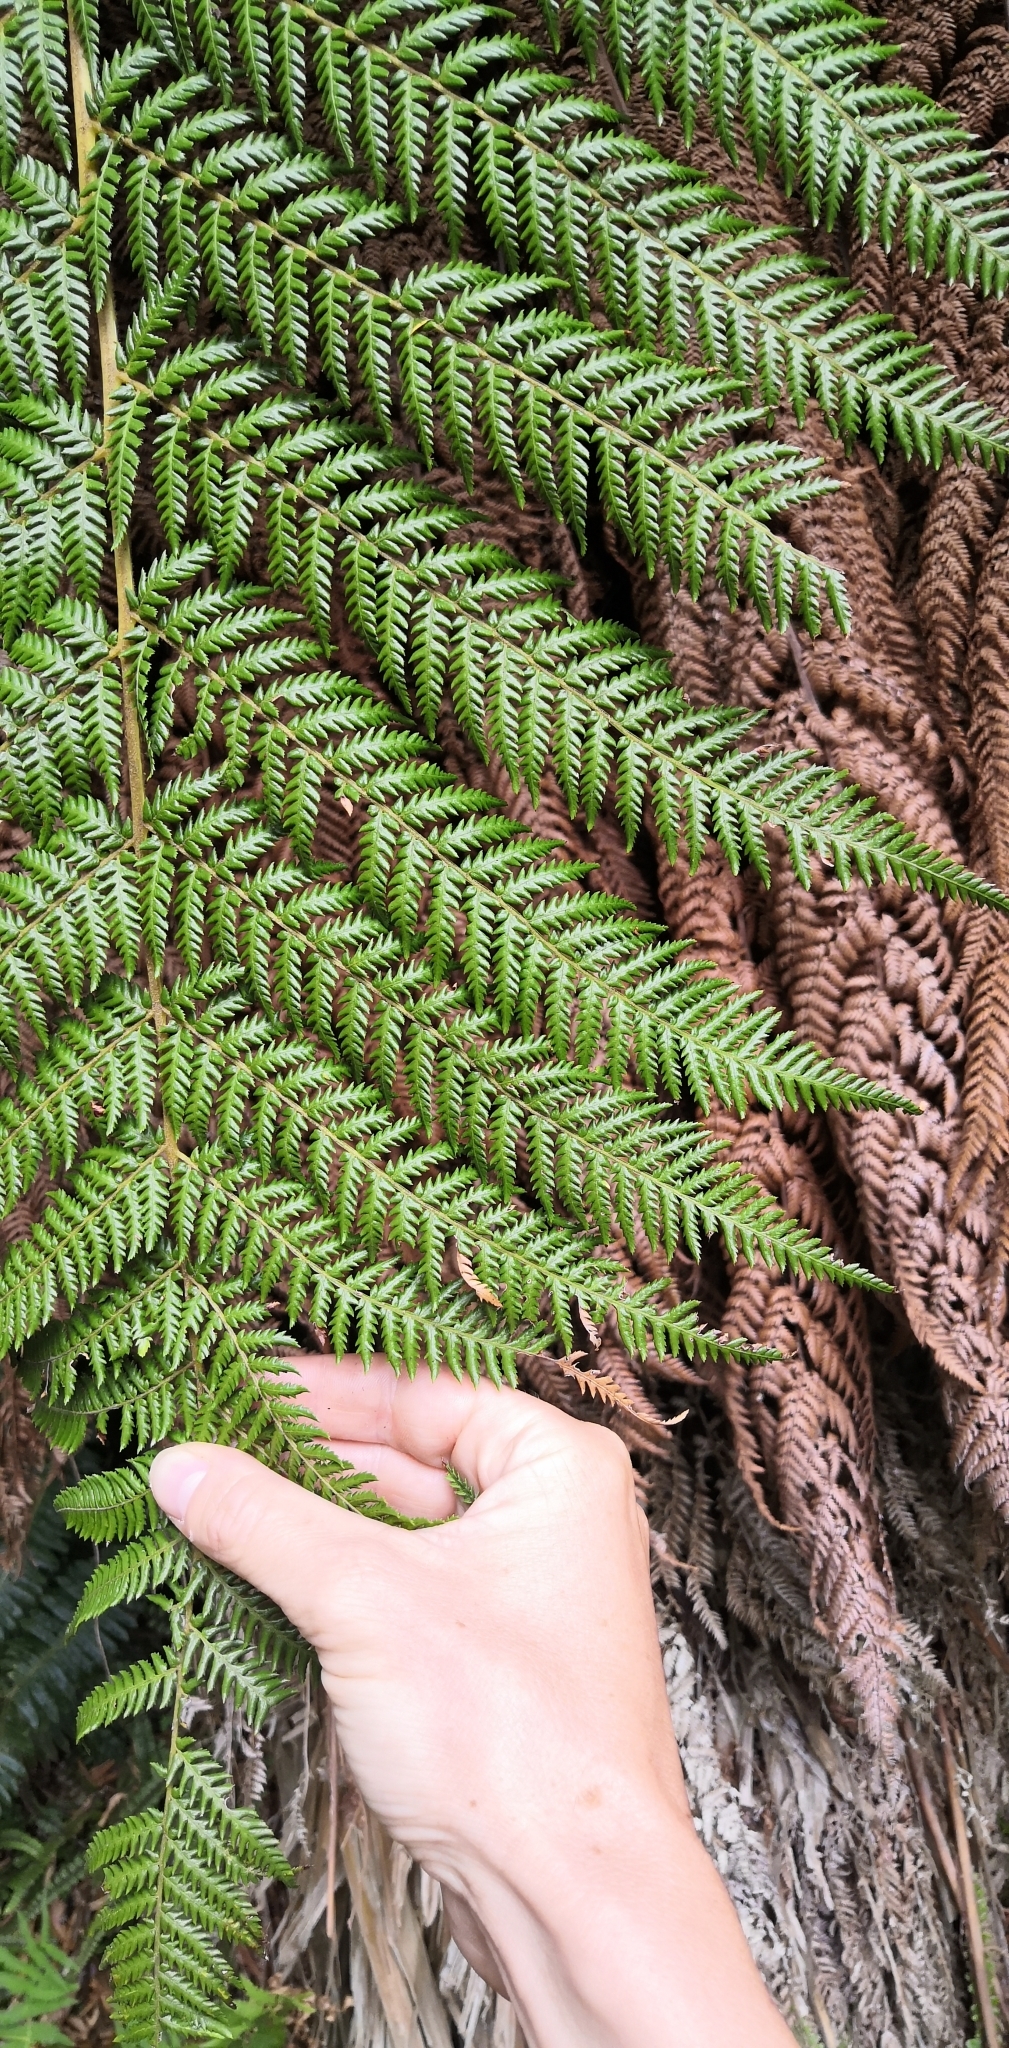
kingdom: Plantae
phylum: Tracheophyta
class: Polypodiopsida
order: Cyatheales
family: Dicksoniaceae
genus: Dicksonia
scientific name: Dicksonia squarrosa
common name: Hard treefern
